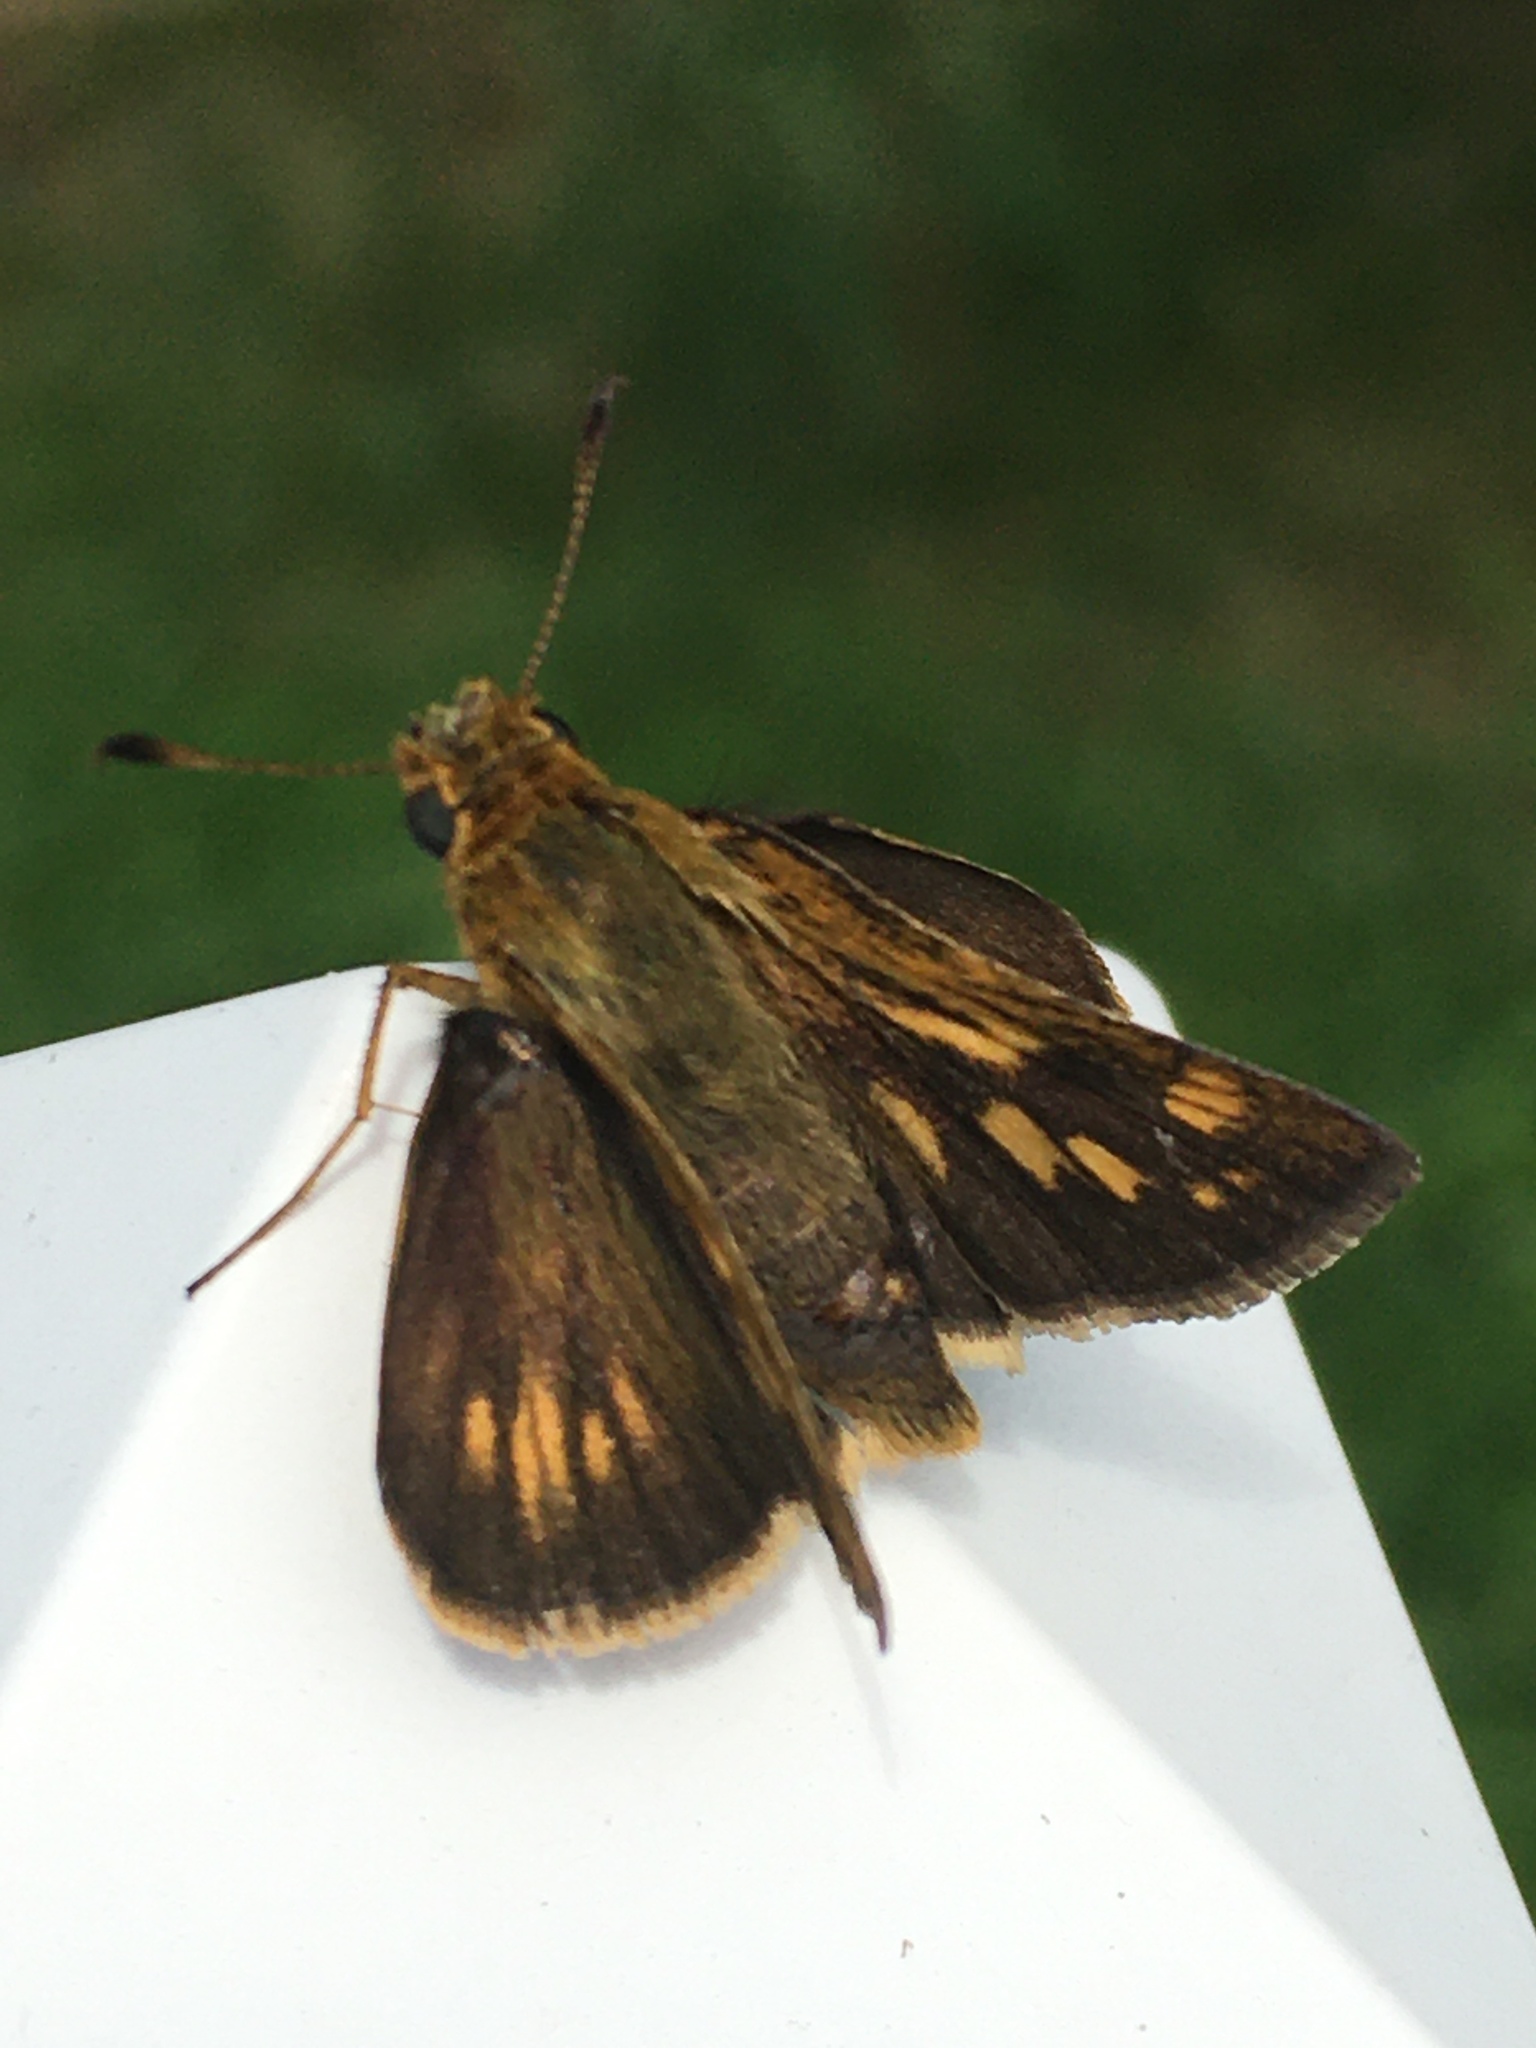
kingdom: Animalia
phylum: Arthropoda
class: Insecta
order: Lepidoptera
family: Hesperiidae
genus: Polites
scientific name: Polites coras
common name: Peck's skipper
